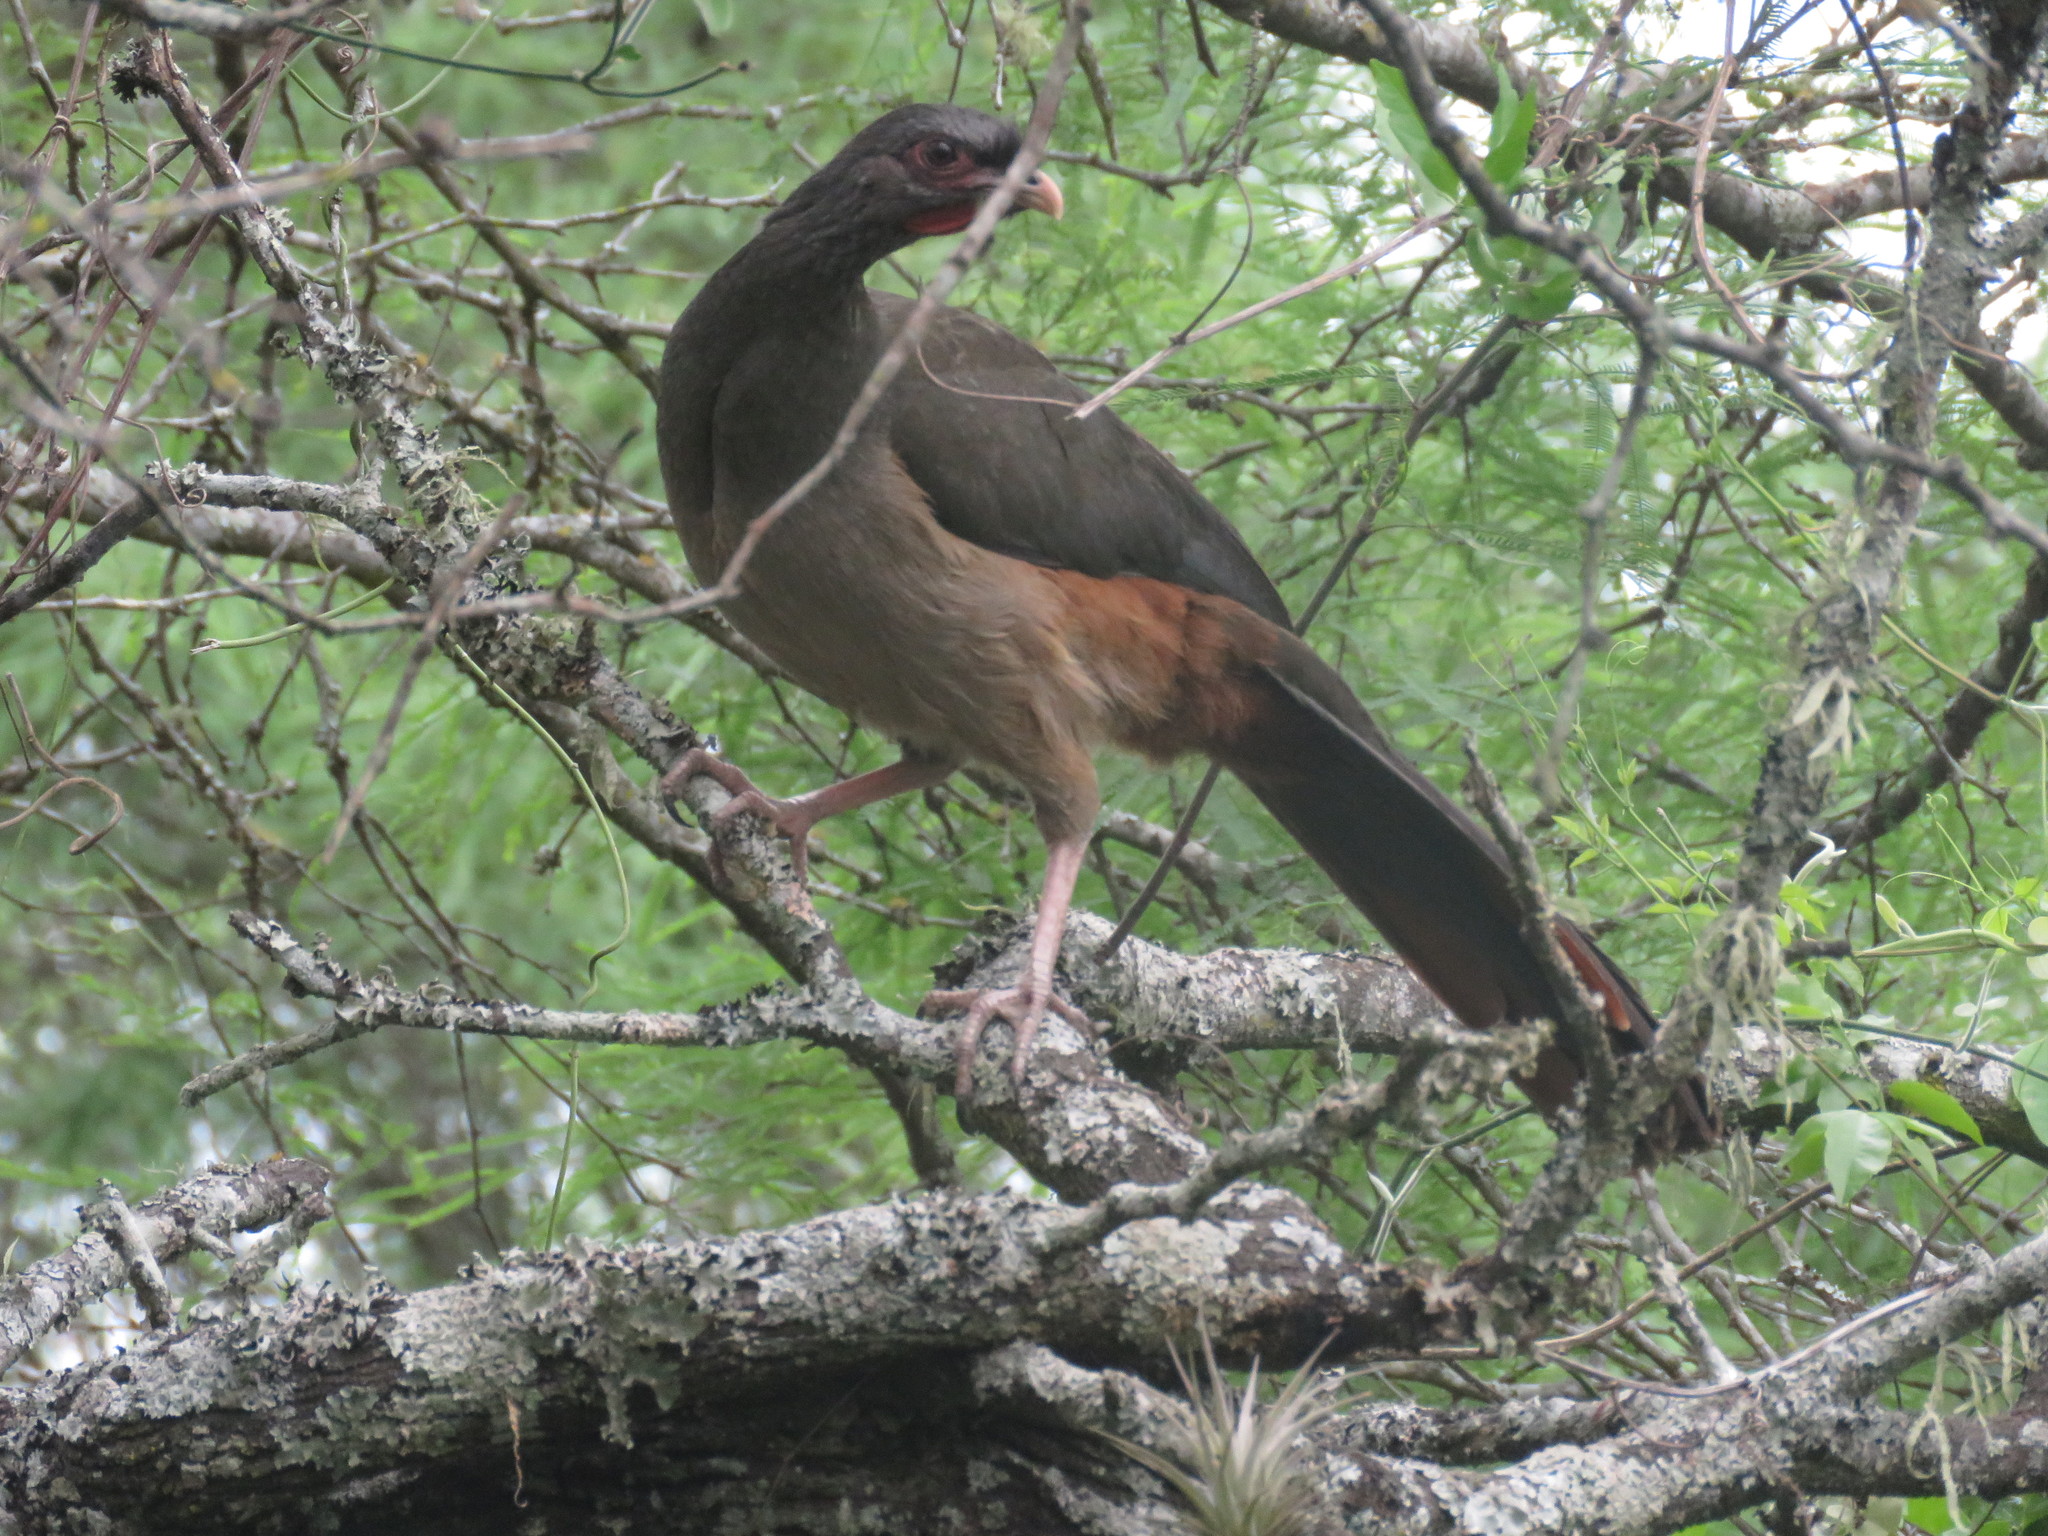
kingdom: Animalia
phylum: Chordata
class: Aves
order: Galliformes
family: Cracidae
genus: Ortalis
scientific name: Ortalis canicollis
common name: Chaco chachalaca
